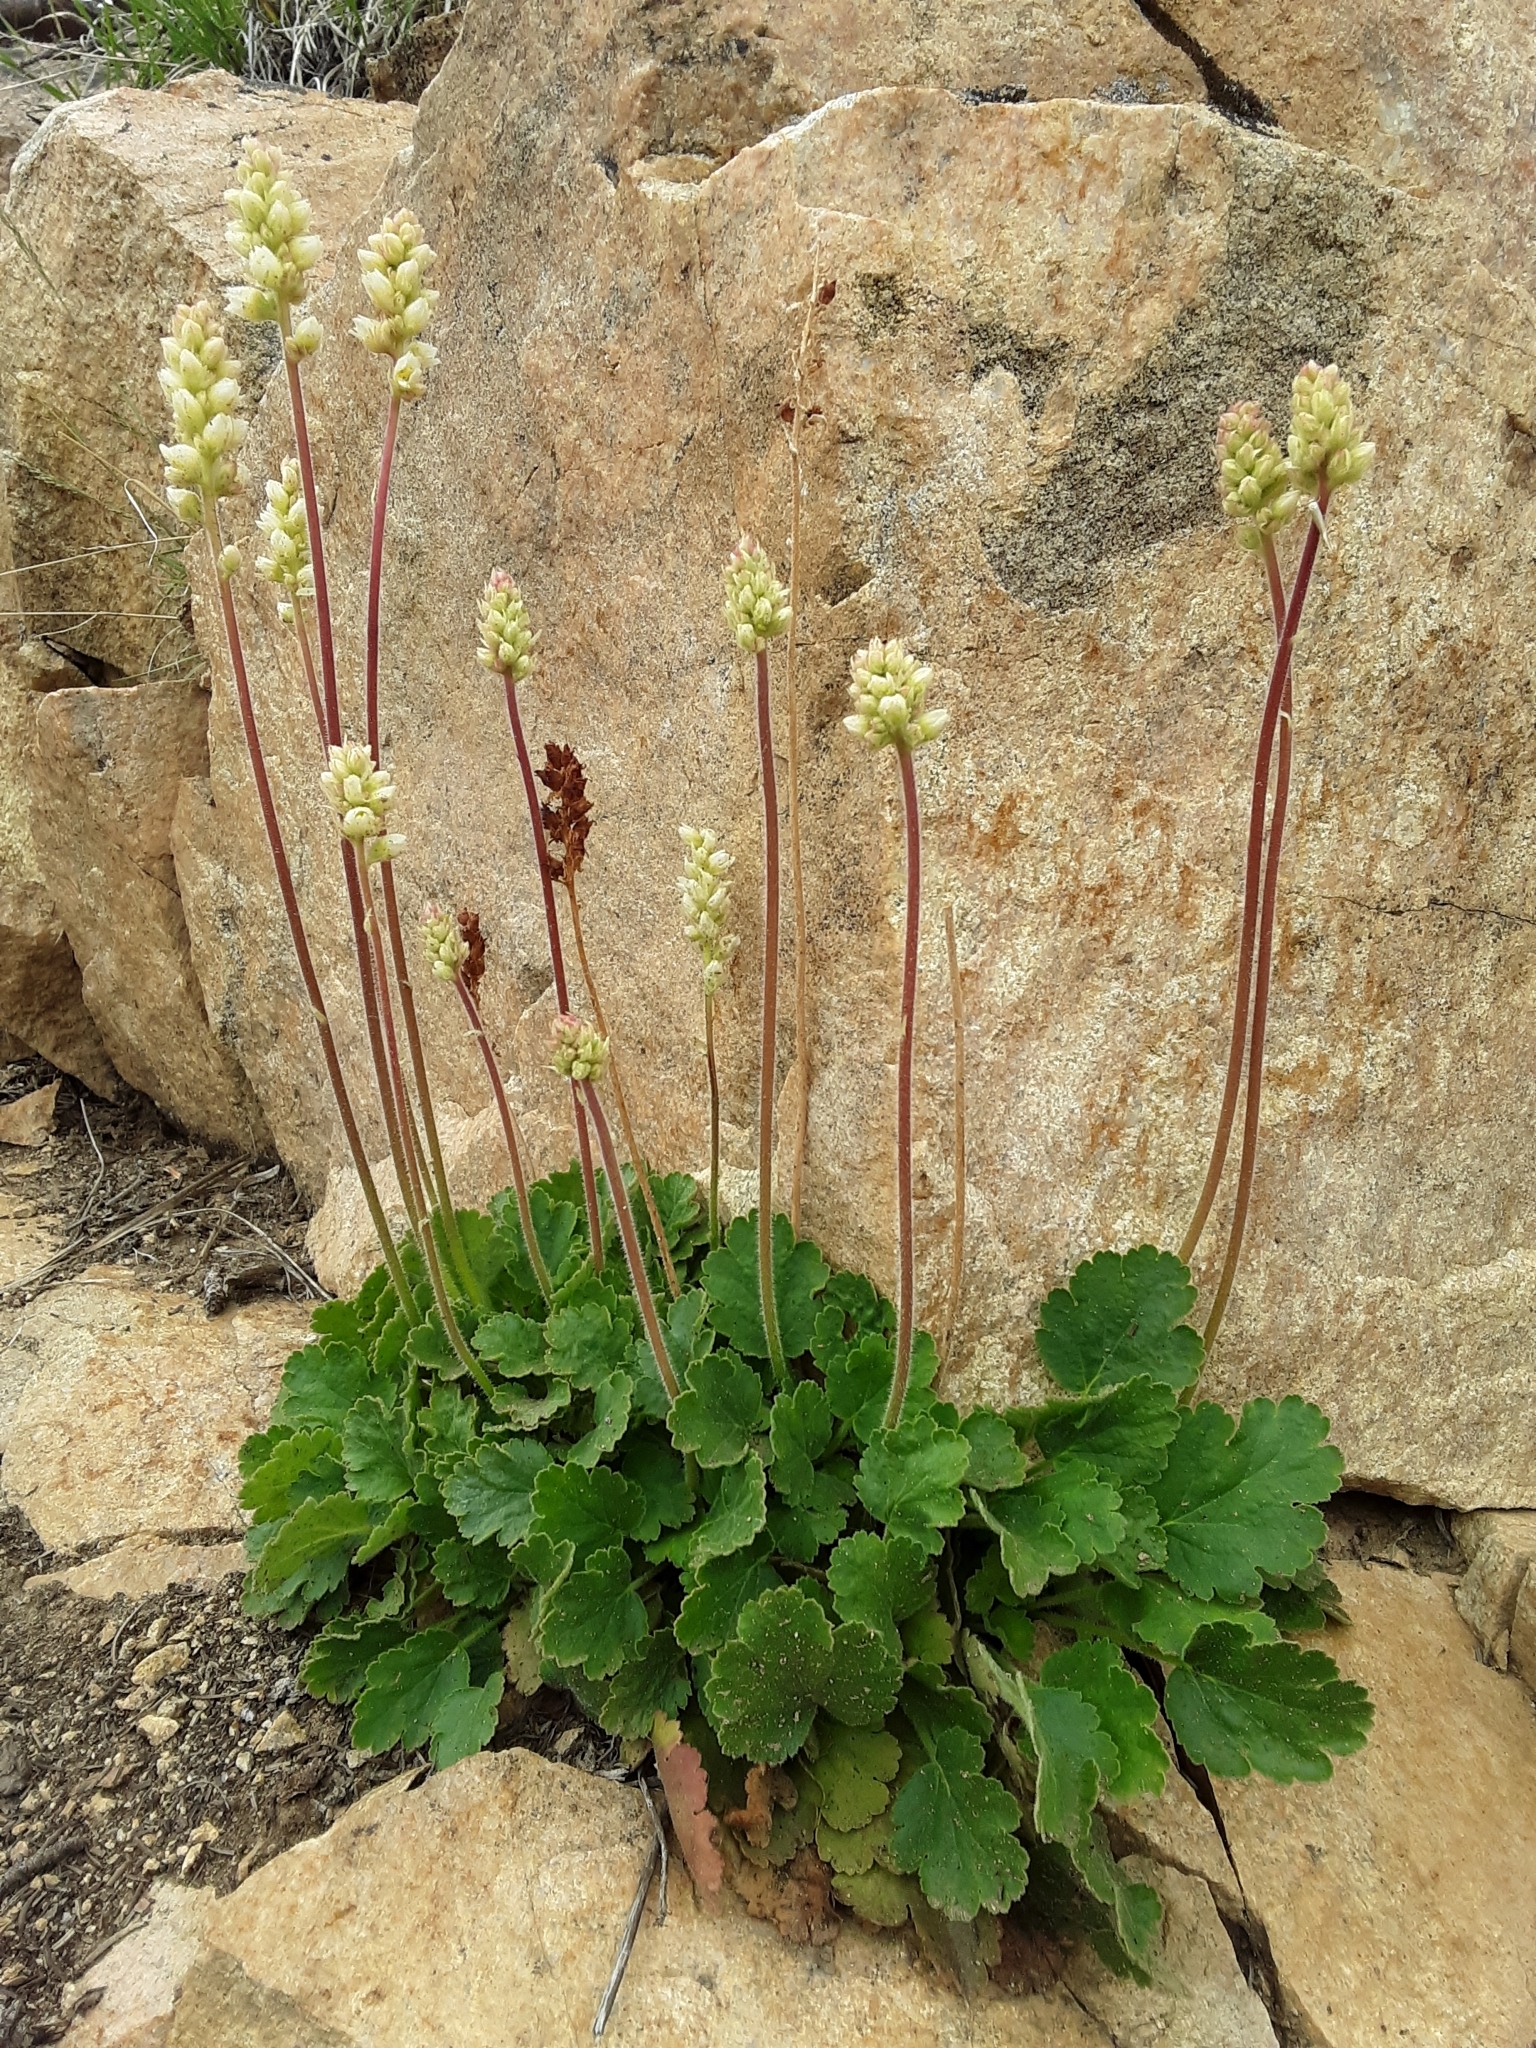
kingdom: Plantae
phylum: Tracheophyta
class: Magnoliopsida
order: Saxifragales
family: Saxifragaceae
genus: Heuchera
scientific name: Heuchera cylindrica
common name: Mat alumroot
